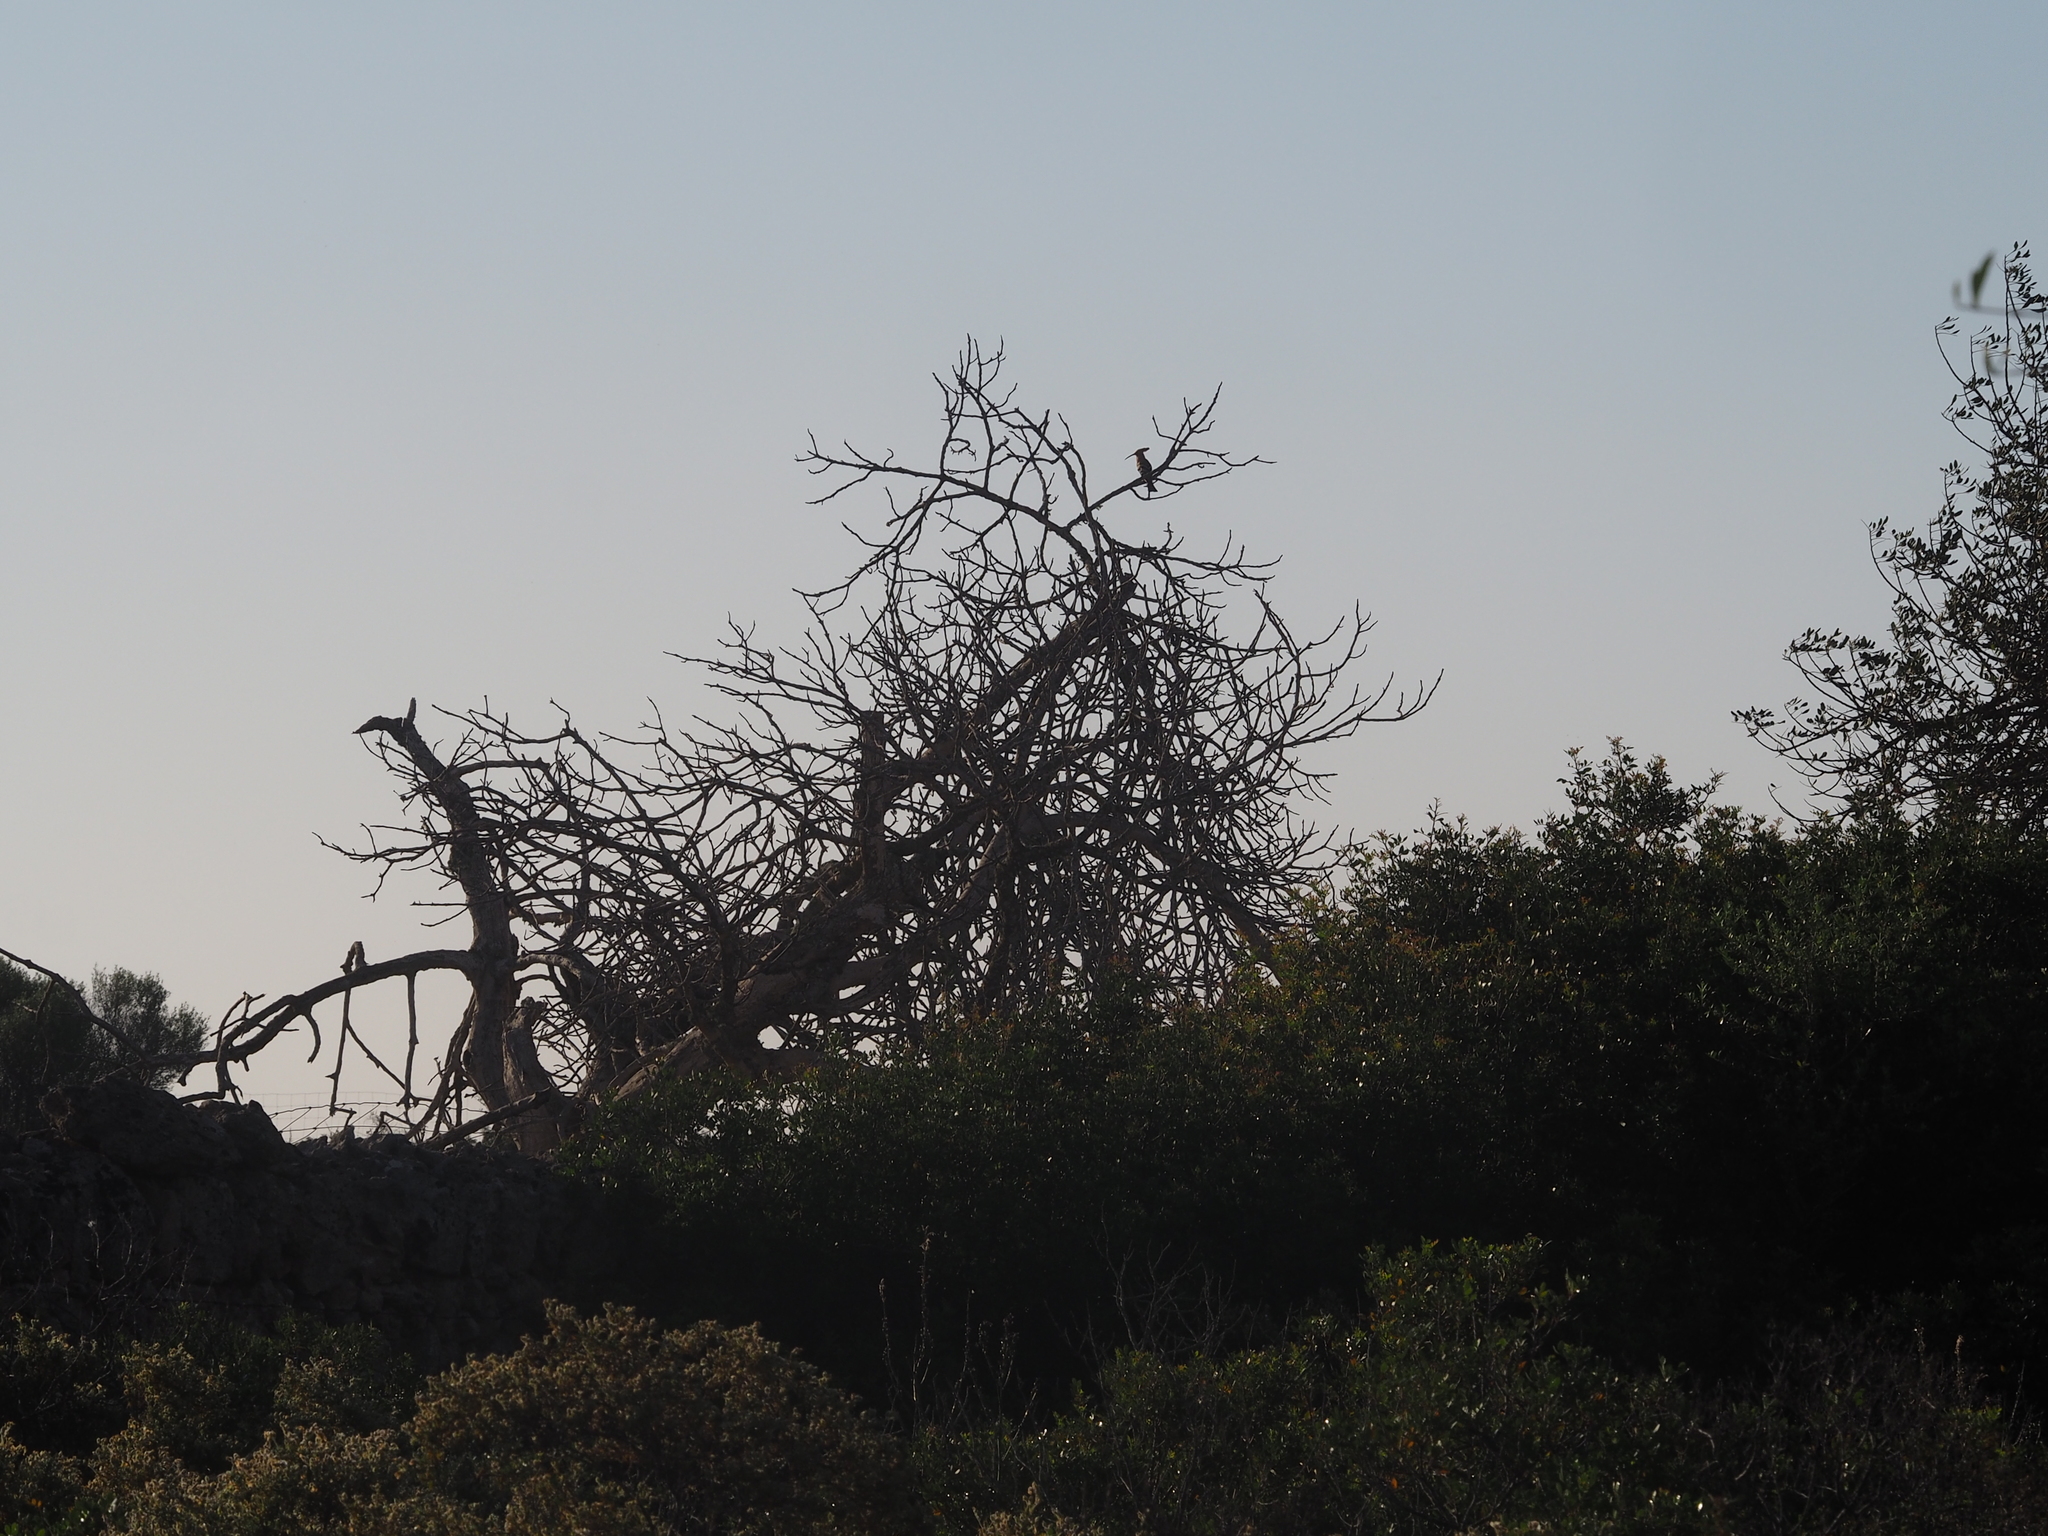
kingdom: Animalia
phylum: Chordata
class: Aves
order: Bucerotiformes
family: Upupidae
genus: Upupa
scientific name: Upupa epops
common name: Eurasian hoopoe
